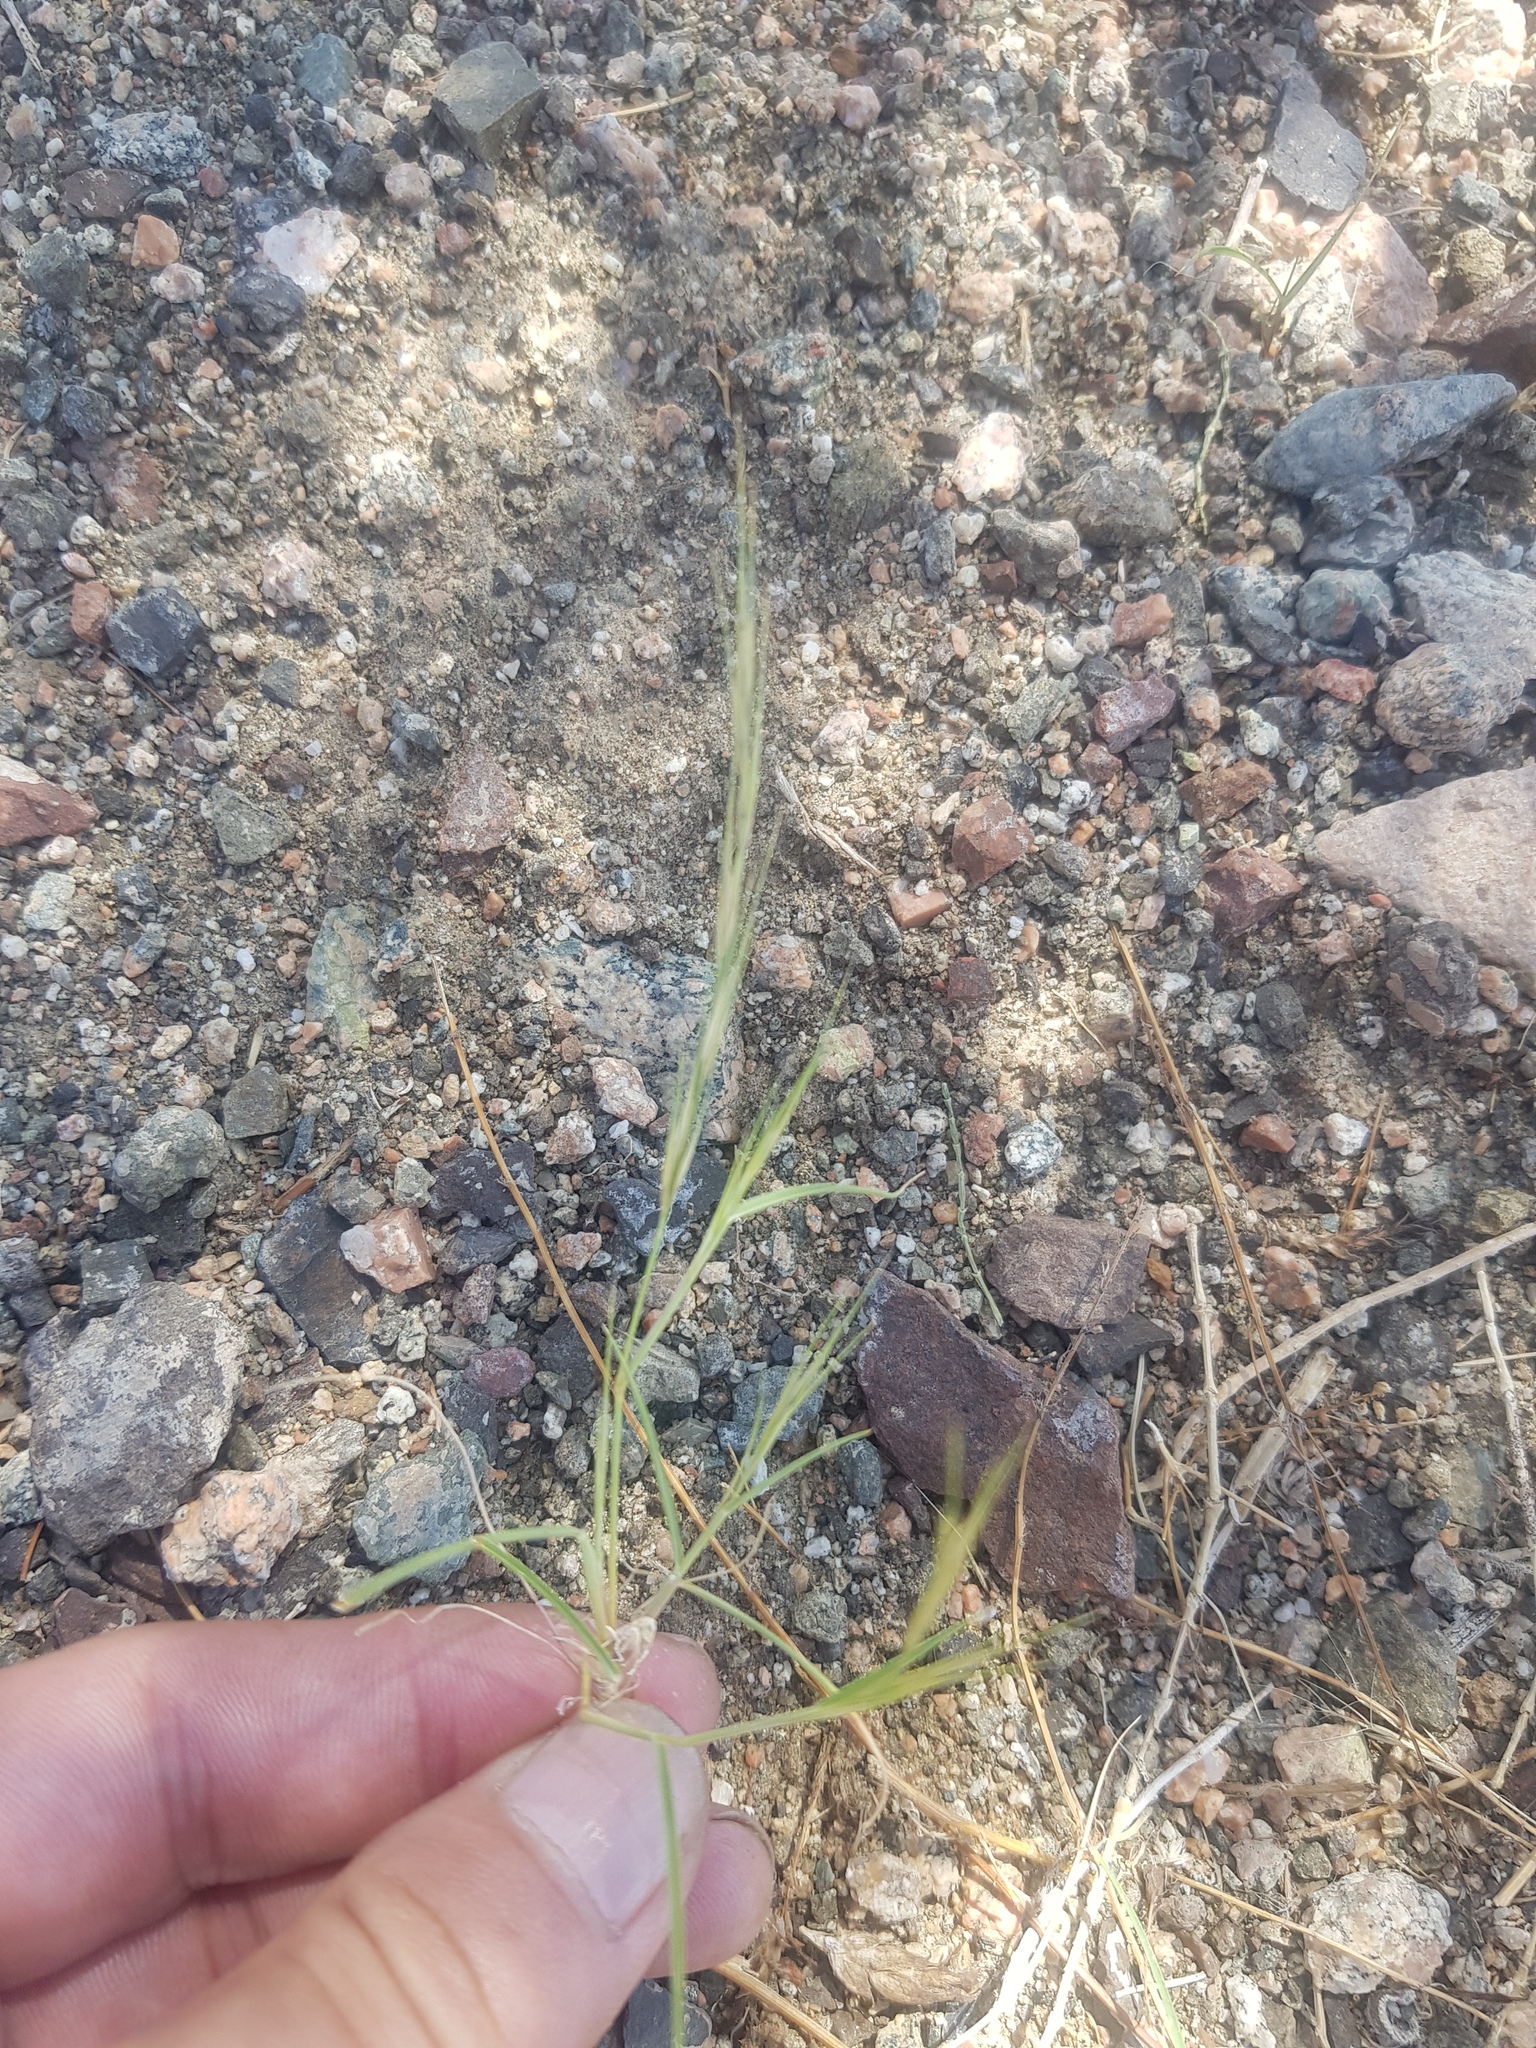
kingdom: Plantae
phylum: Tracheophyta
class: Liliopsida
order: Poales
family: Poaceae
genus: Stipa
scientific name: Stipa glareosa
